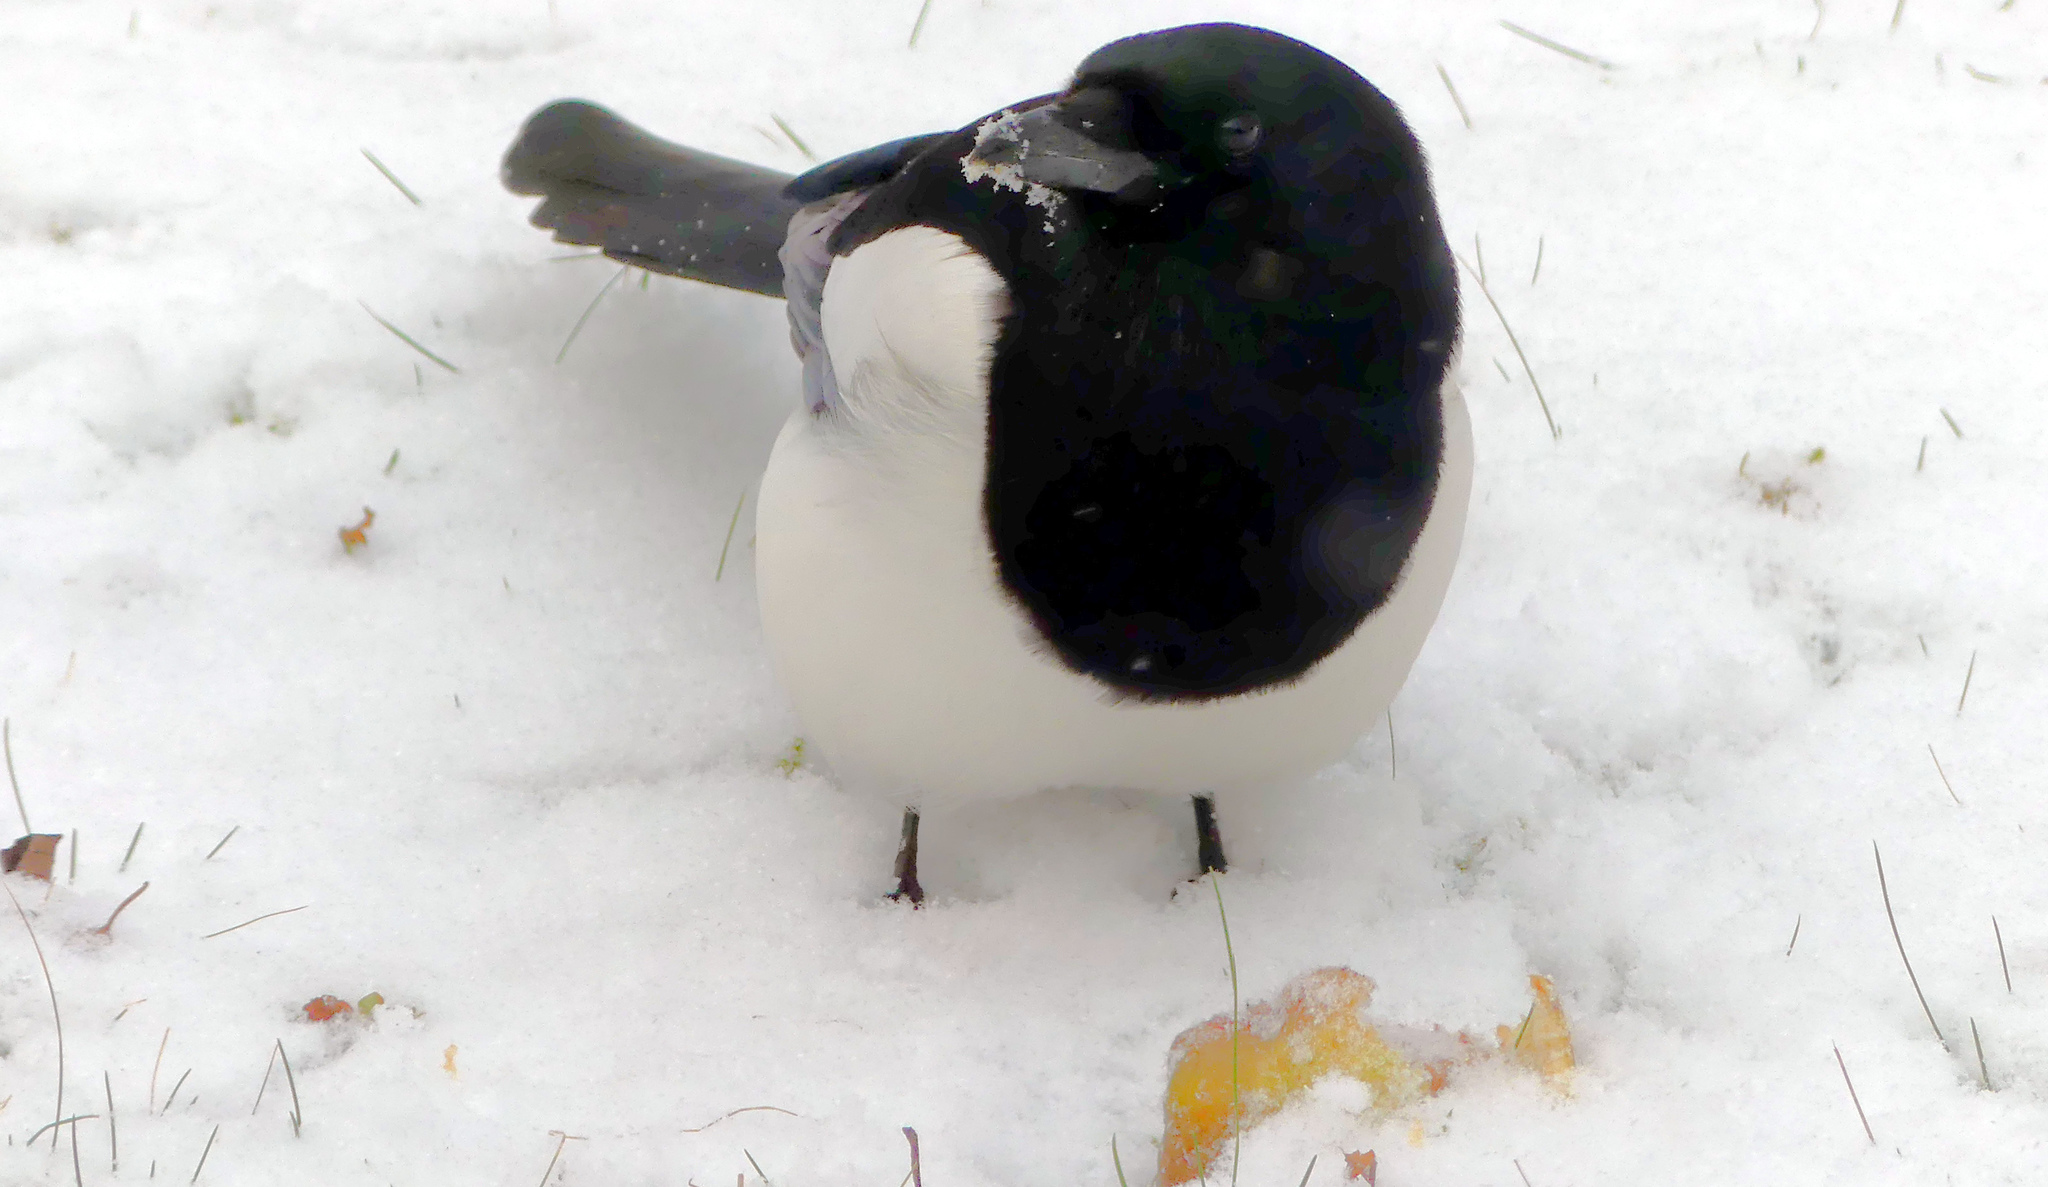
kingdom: Animalia
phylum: Chordata
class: Aves
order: Passeriformes
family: Corvidae
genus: Pica
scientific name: Pica pica
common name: Eurasian magpie
